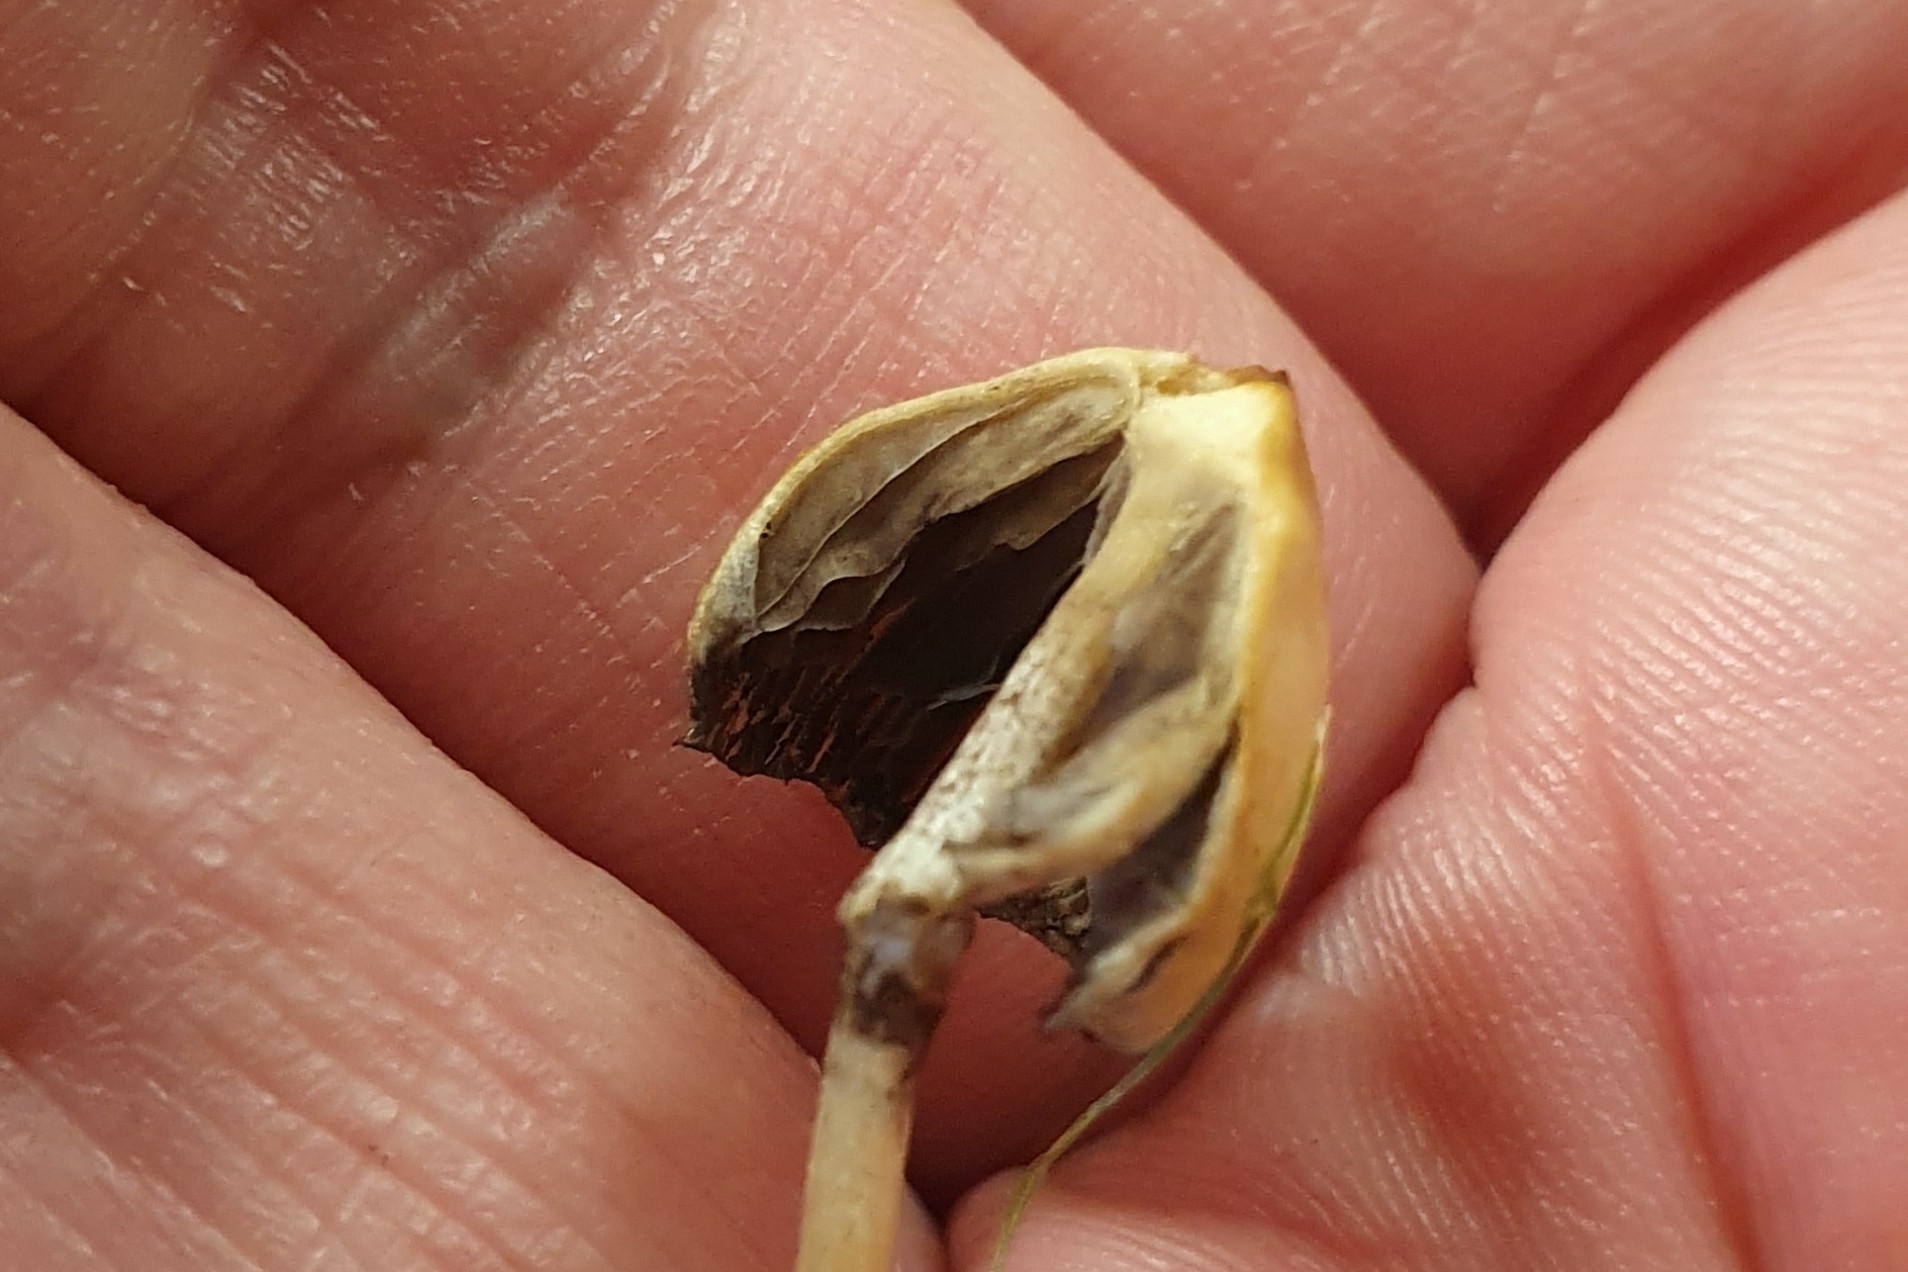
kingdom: Fungi
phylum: Basidiomycota
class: Agaricomycetes
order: Agaricales
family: Hymenogastraceae
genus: Psilocybe
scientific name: Psilocybe semilanceata
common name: Liberty cap
